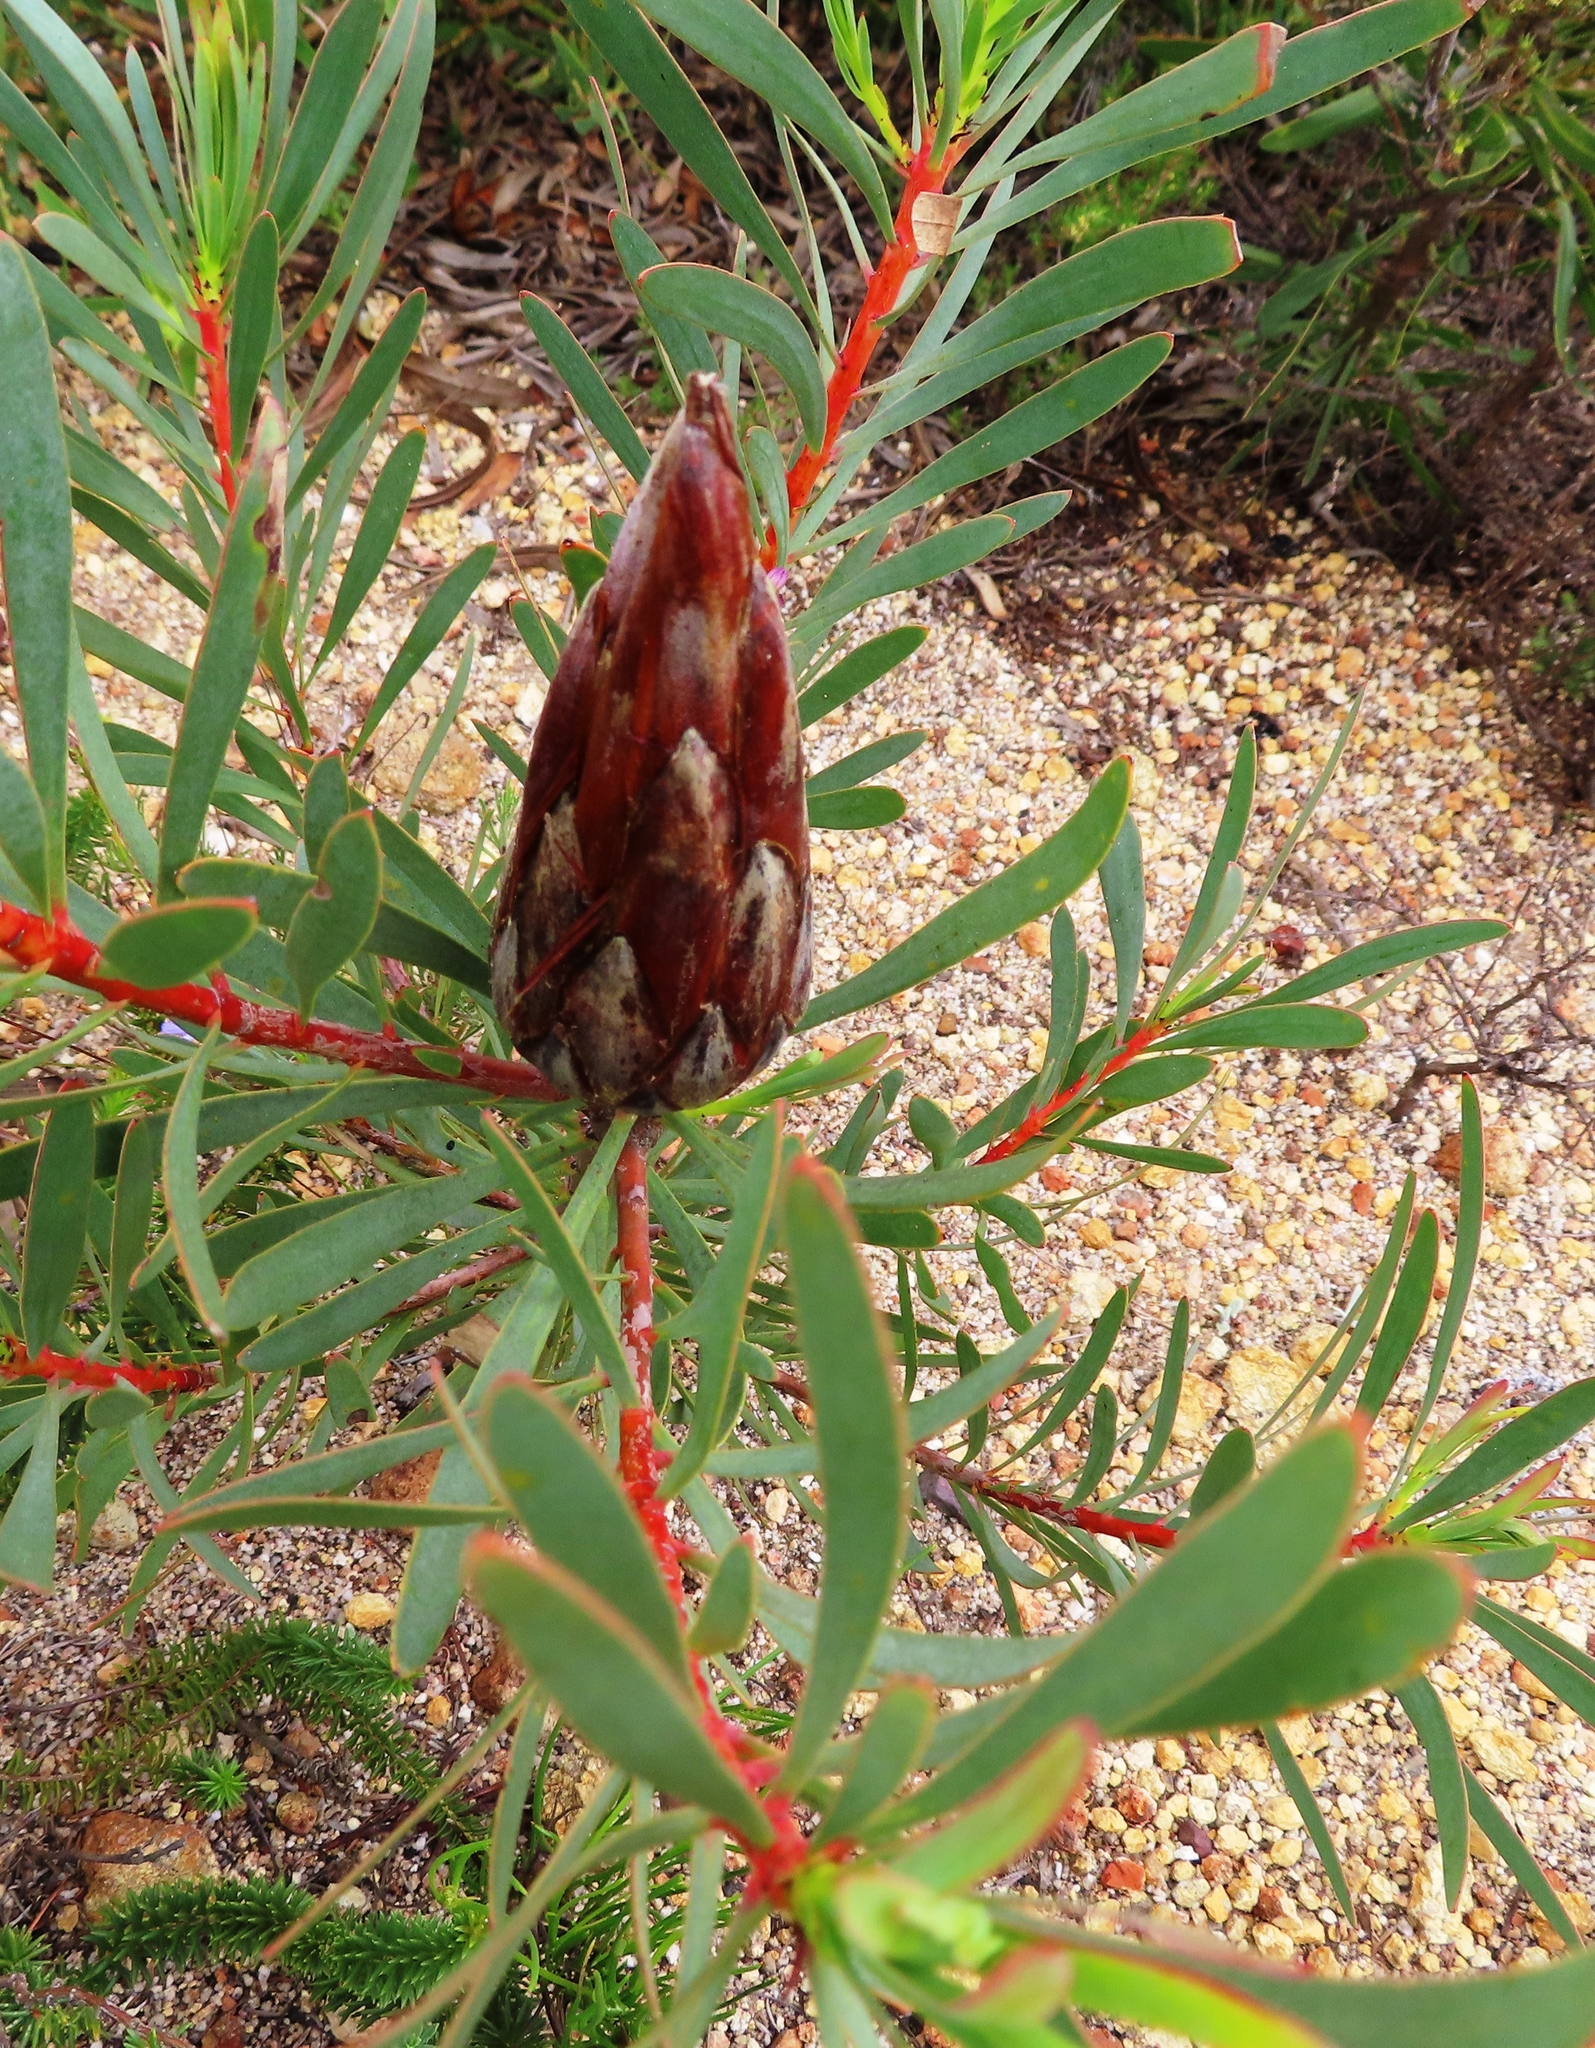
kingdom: Plantae
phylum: Tracheophyta
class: Magnoliopsida
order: Proteales
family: Proteaceae
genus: Protea
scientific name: Protea repens
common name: Sugarbush
